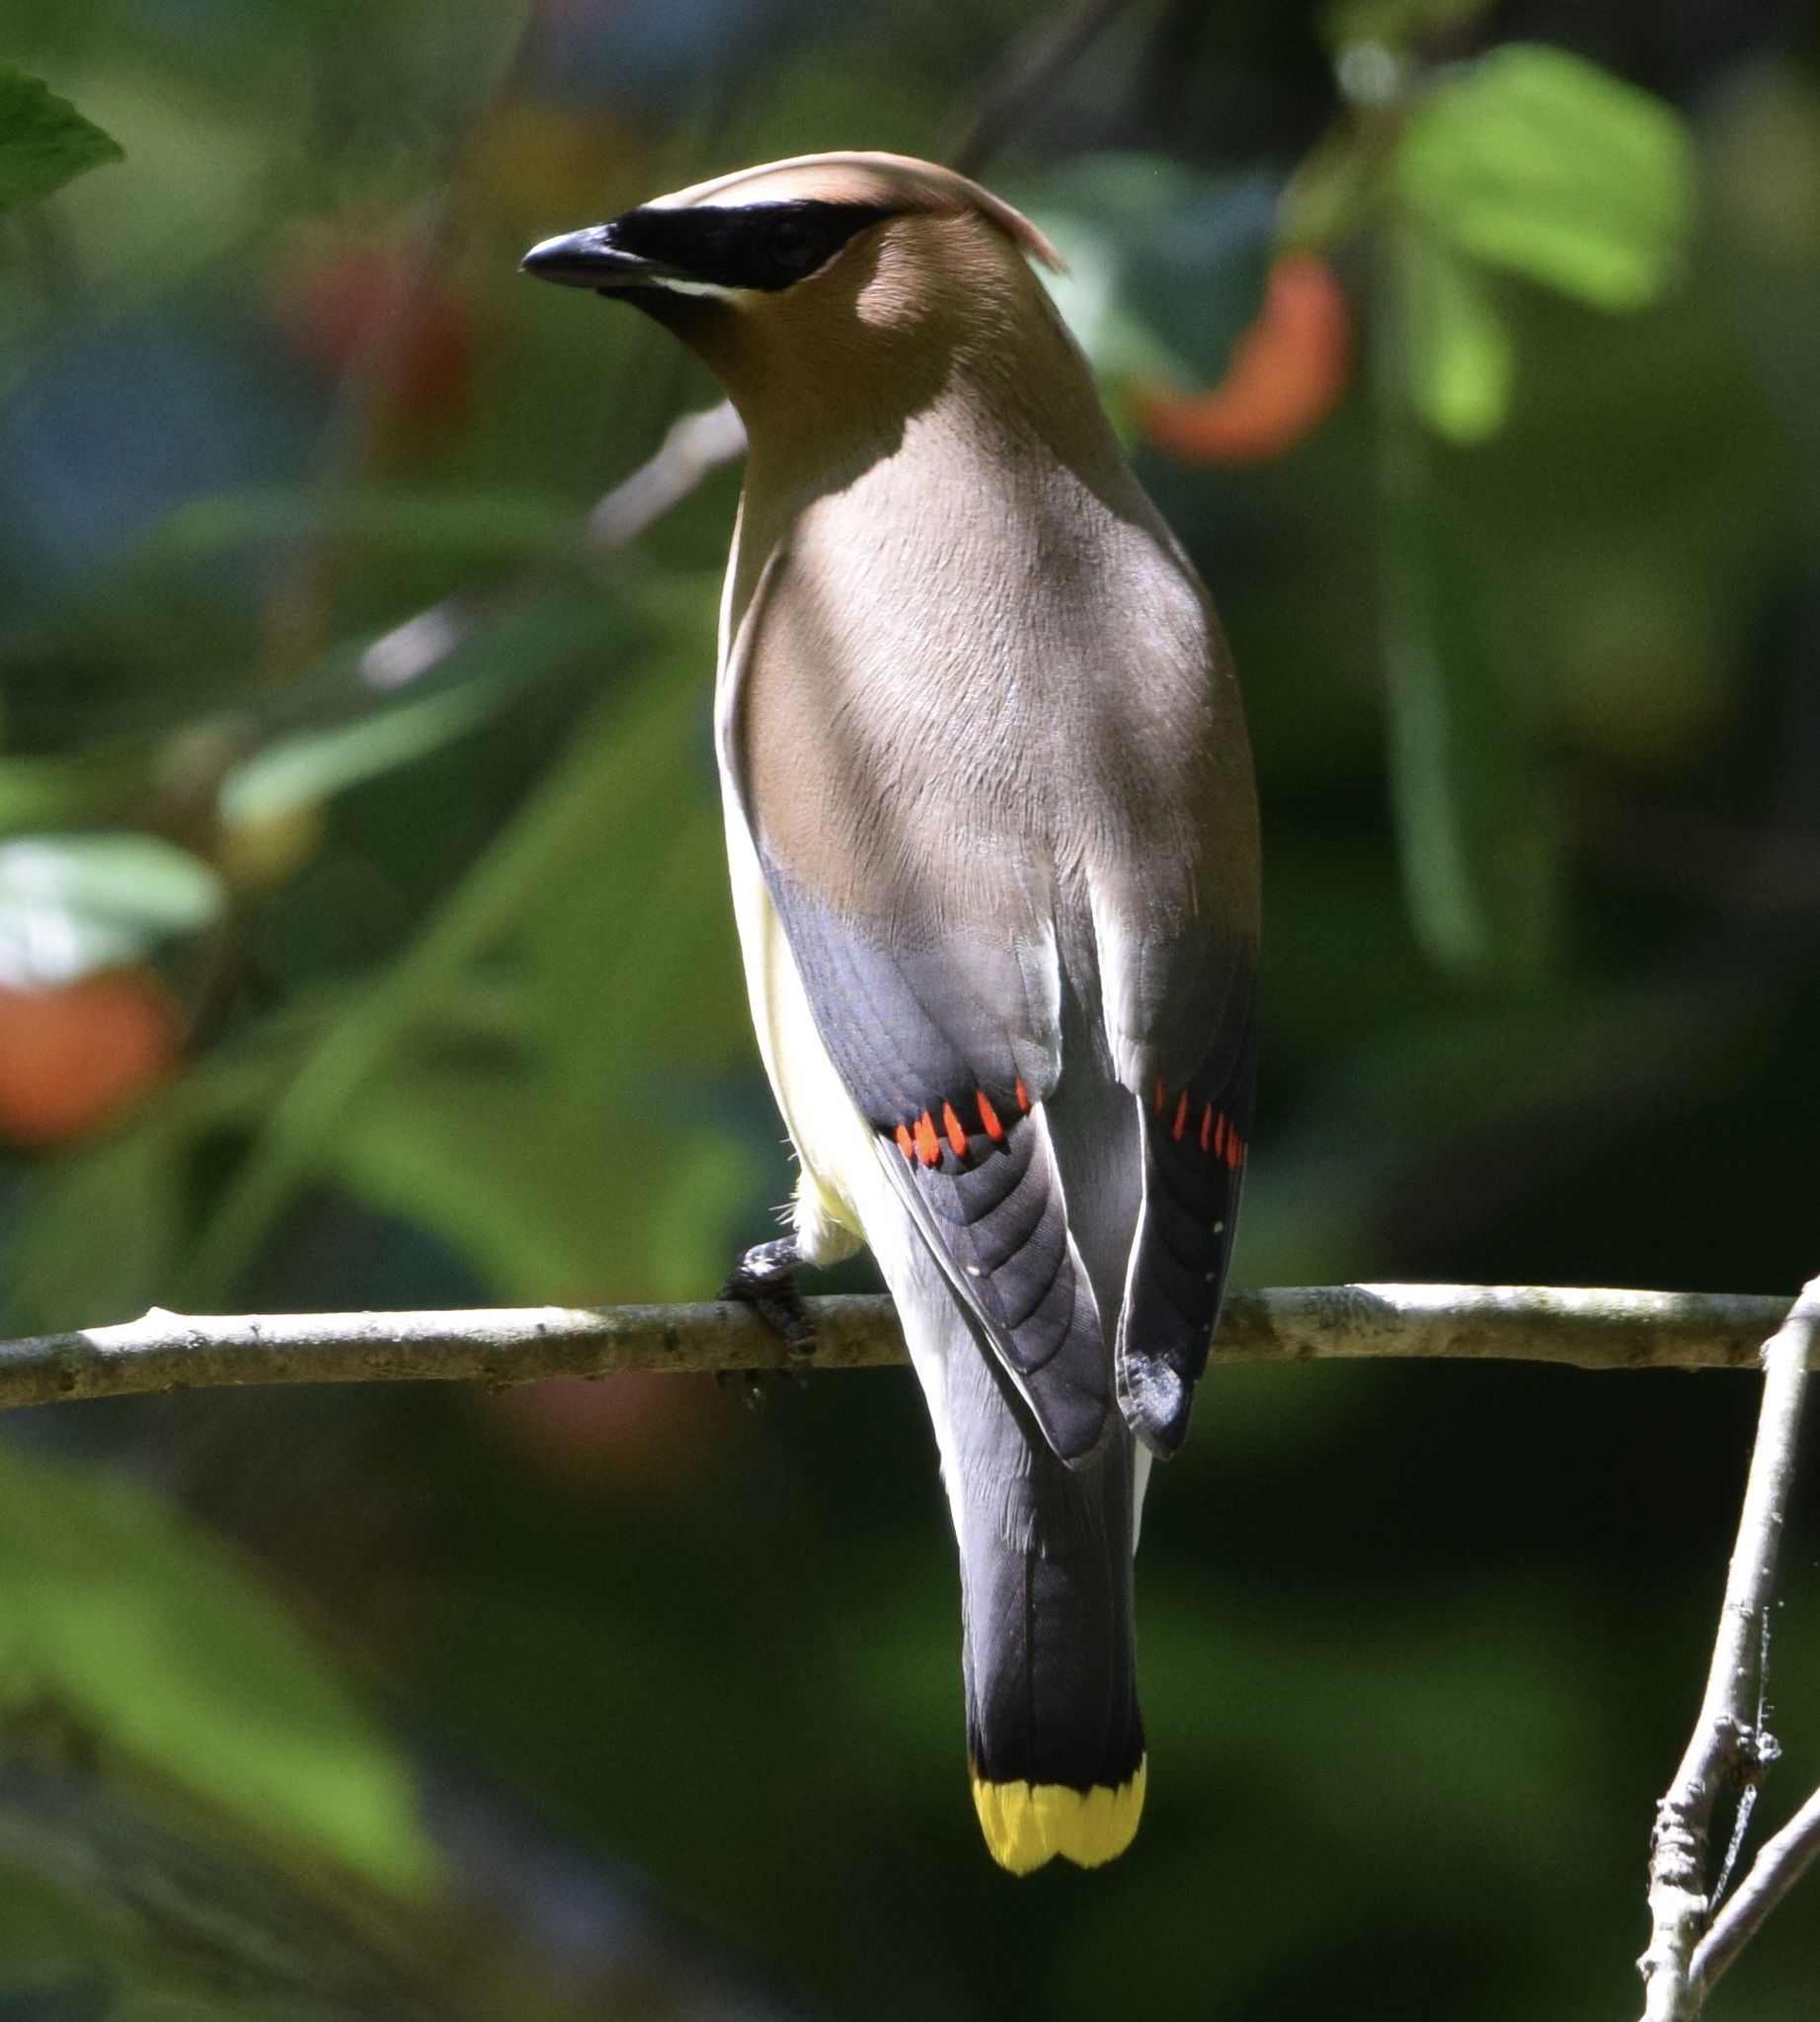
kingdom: Animalia
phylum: Chordata
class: Aves
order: Passeriformes
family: Bombycillidae
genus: Bombycilla
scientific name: Bombycilla cedrorum
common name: Cedar waxwing
